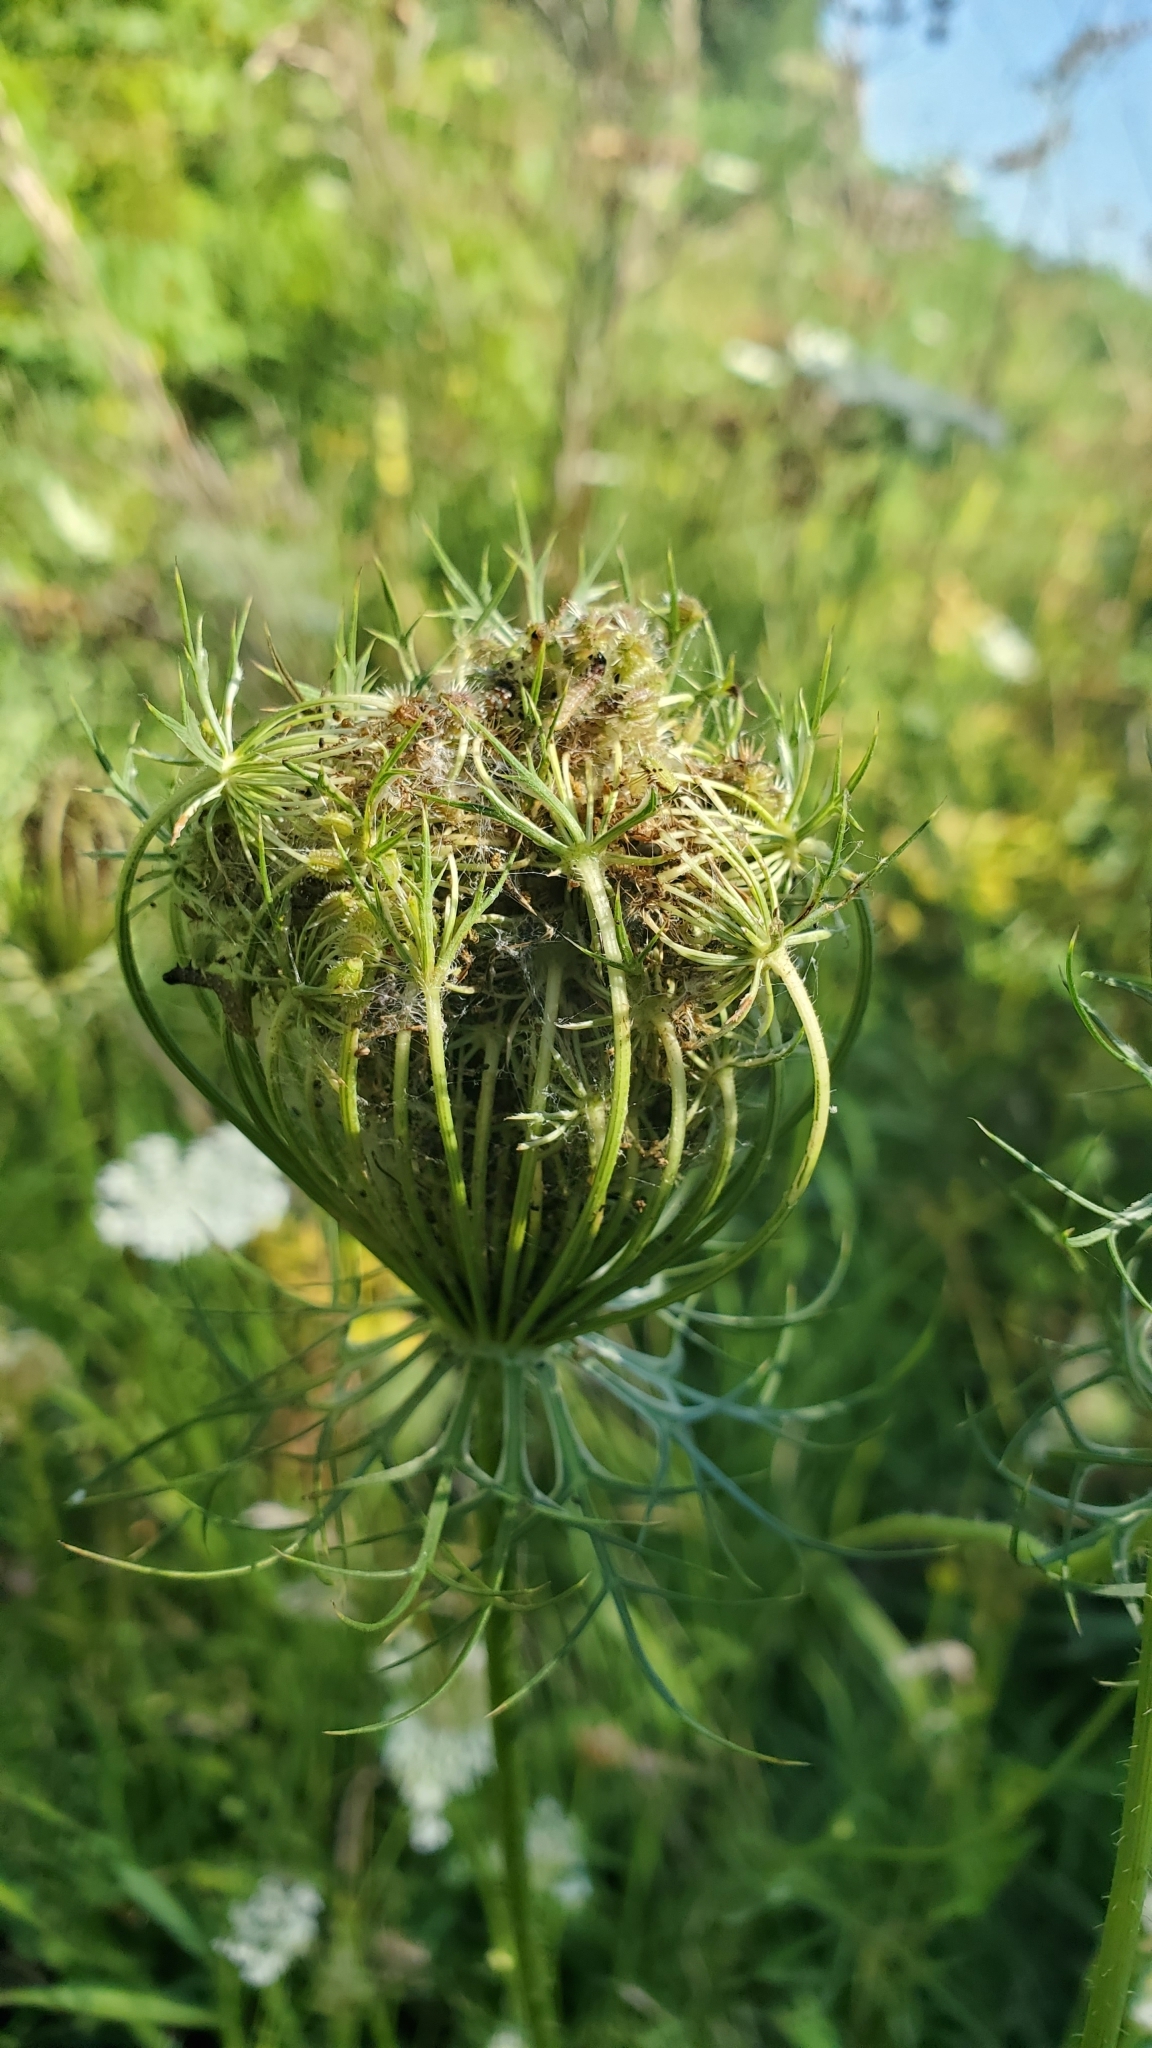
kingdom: Plantae
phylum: Tracheophyta
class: Magnoliopsida
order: Apiales
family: Apiaceae
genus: Daucus
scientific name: Daucus carota
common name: Wild carrot
